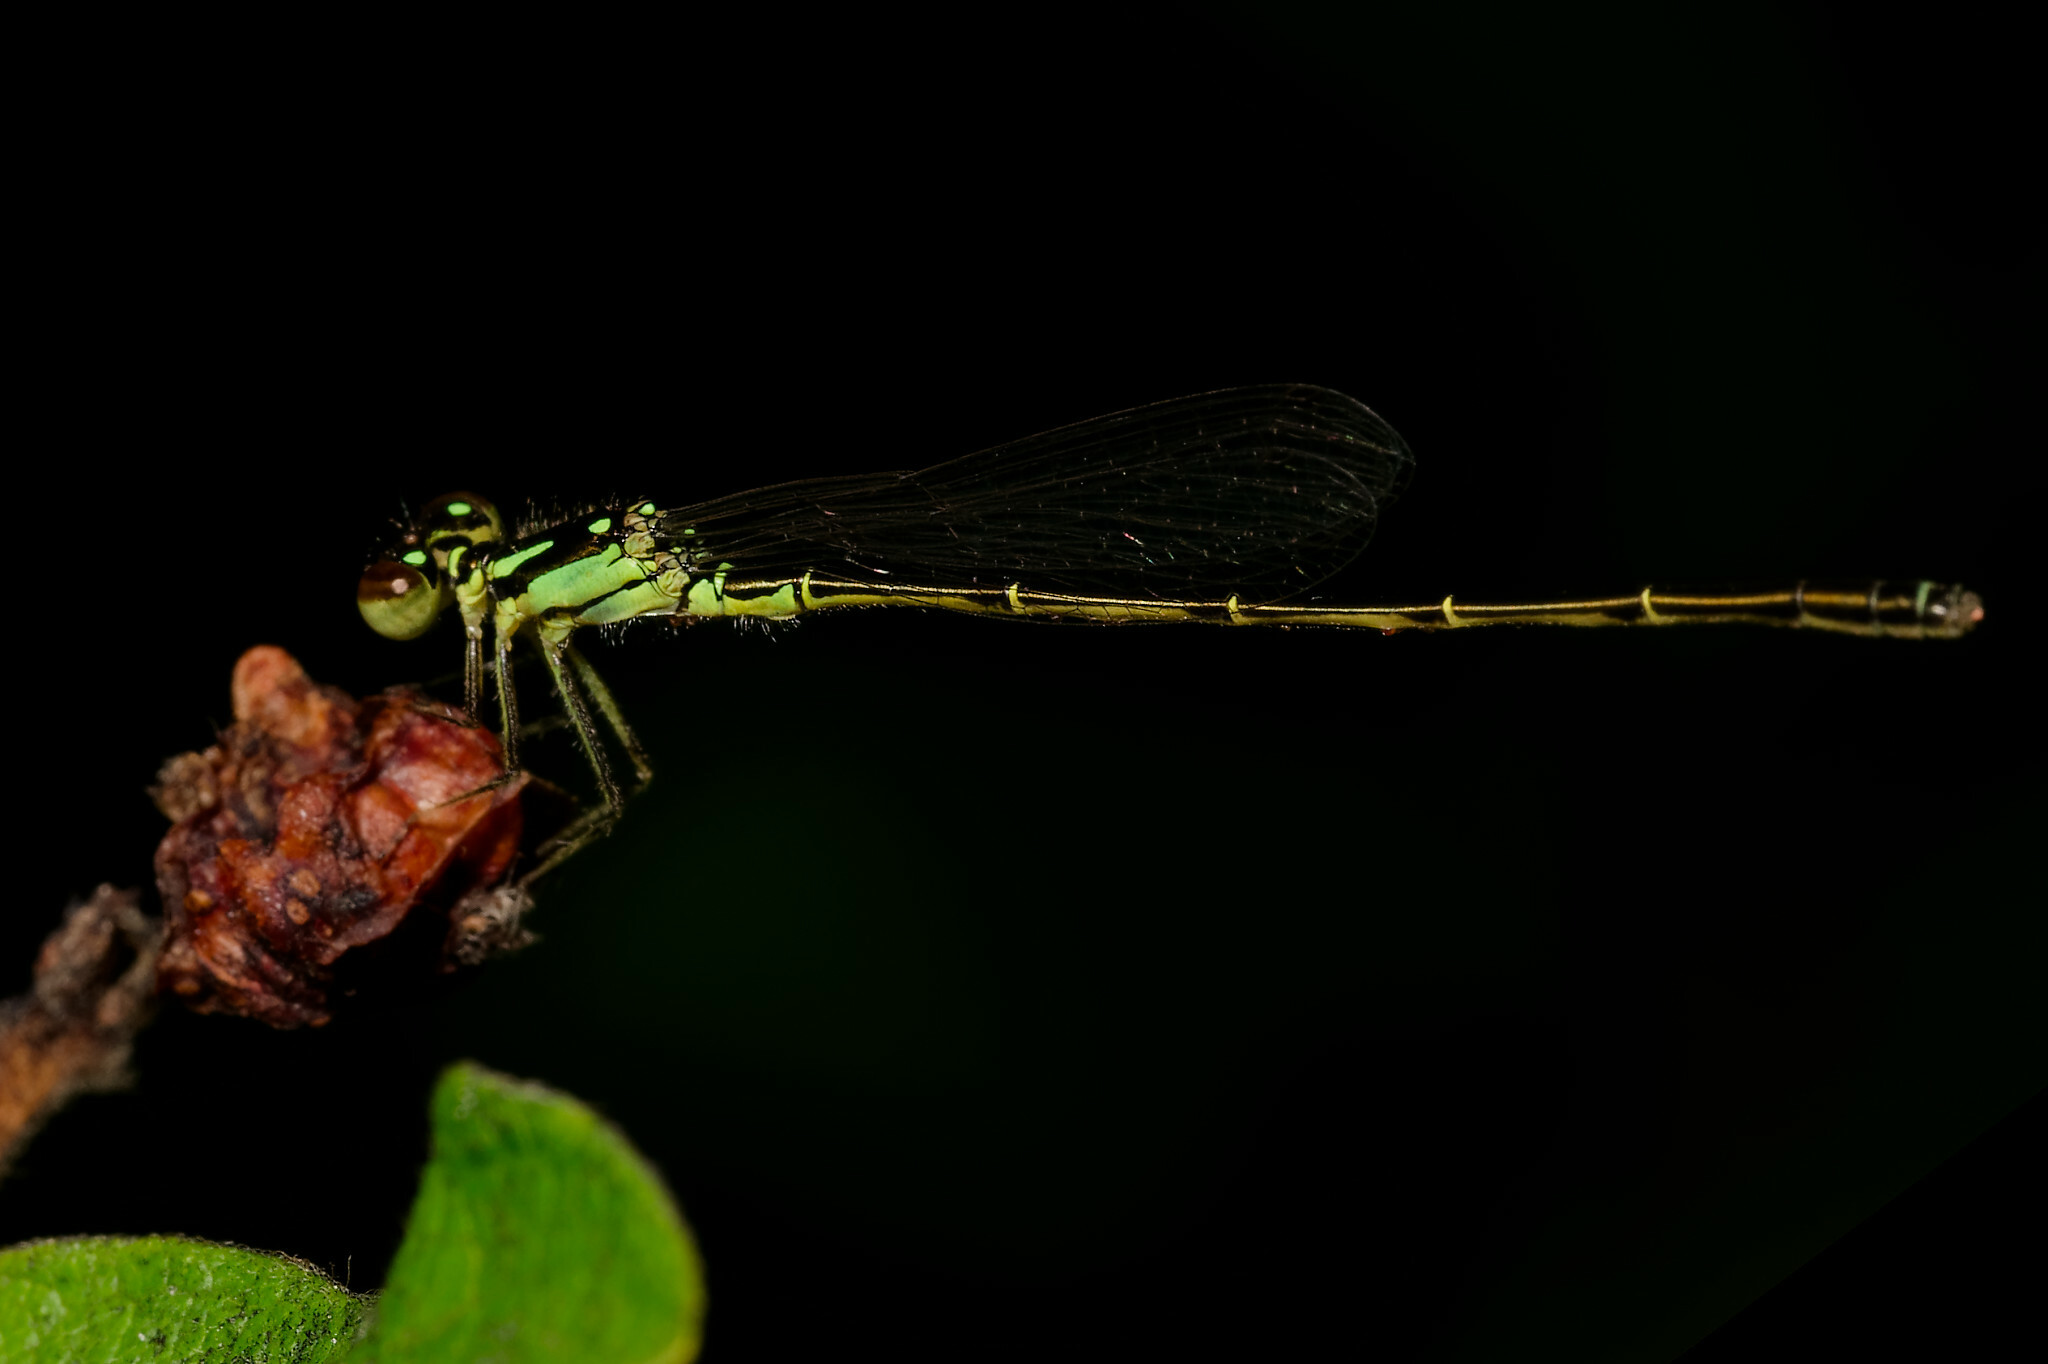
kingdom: Animalia
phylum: Arthropoda
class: Insecta
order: Odonata
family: Coenagrionidae
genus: Ischnura
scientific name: Ischnura posita
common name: Fragile forktail
